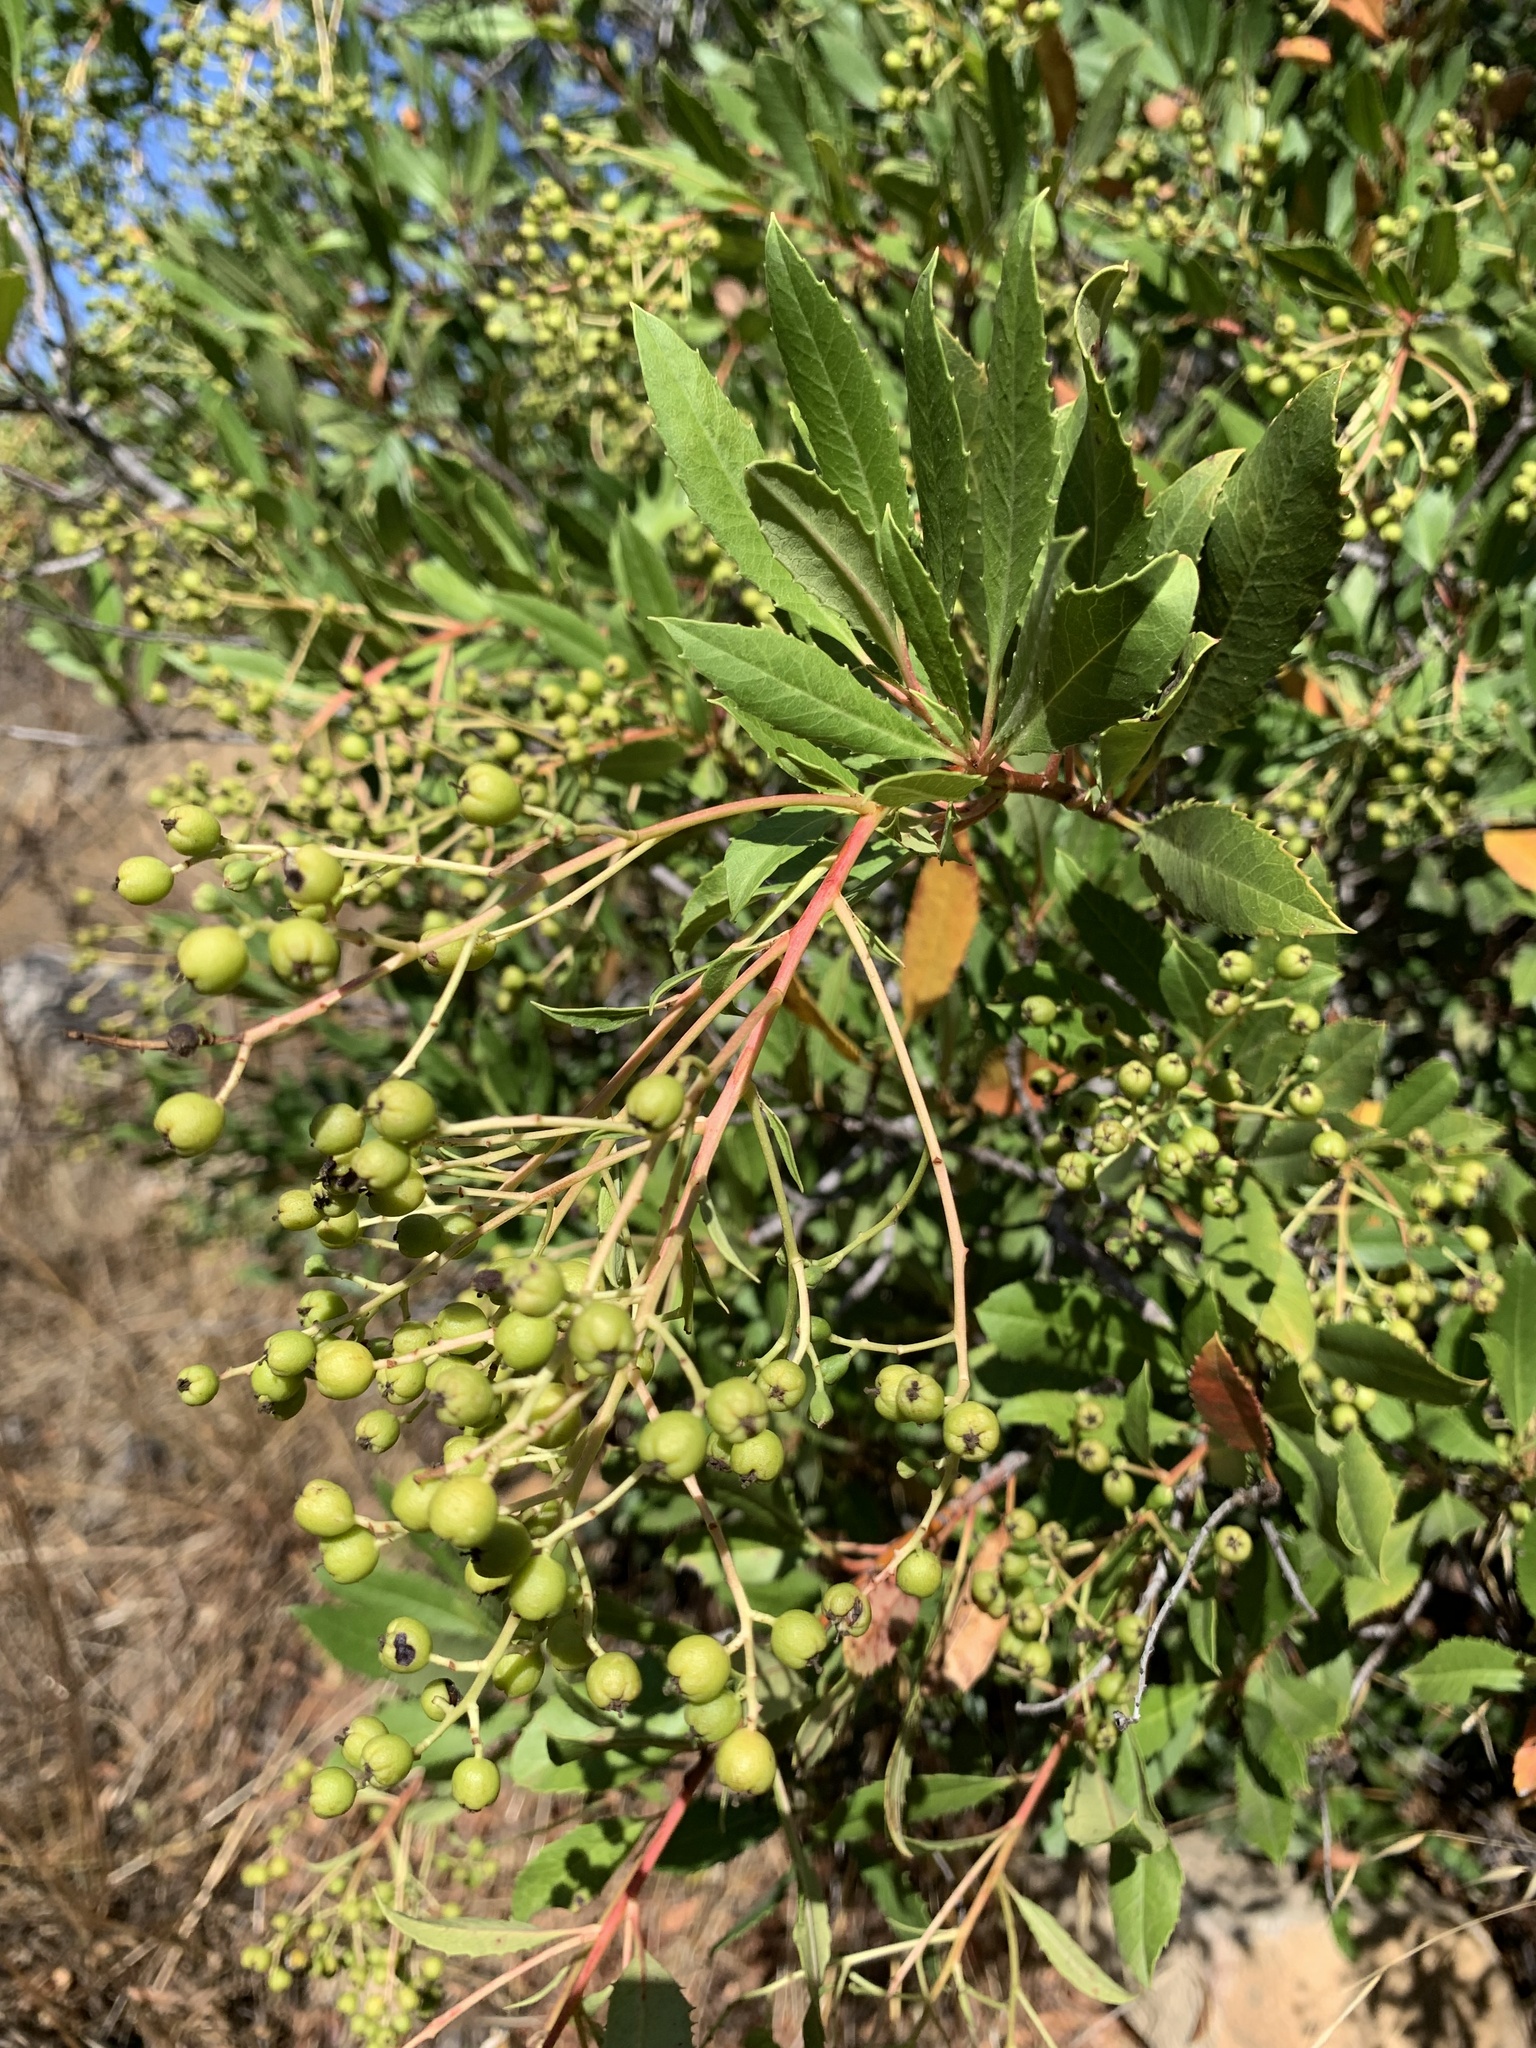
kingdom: Plantae
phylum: Tracheophyta
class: Magnoliopsida
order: Rosales
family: Rosaceae
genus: Heteromeles
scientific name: Heteromeles arbutifolia
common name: California-holly
